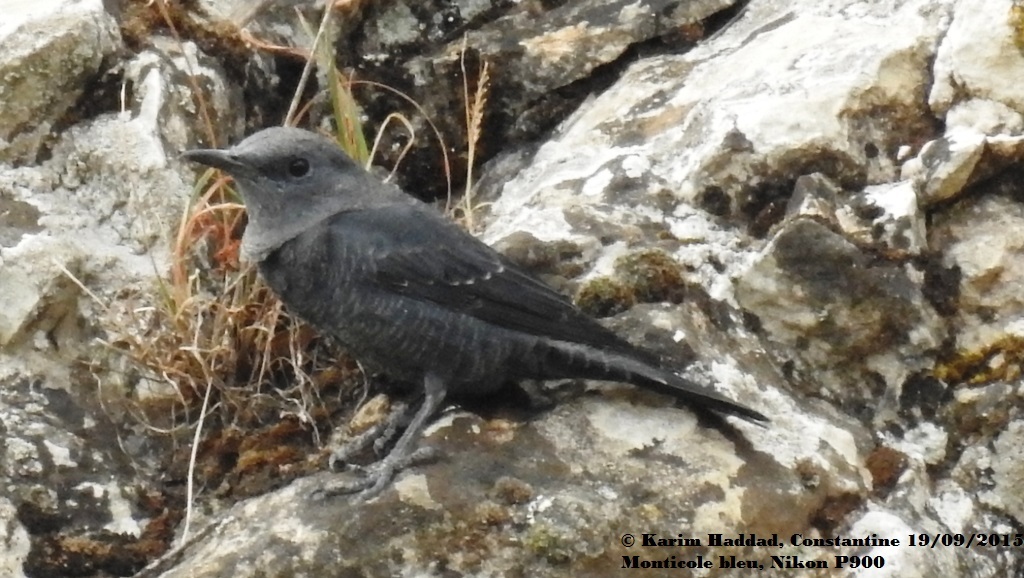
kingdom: Animalia
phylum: Chordata
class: Aves
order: Passeriformes
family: Muscicapidae
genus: Monticola
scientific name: Monticola solitarius
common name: Blue rock thrush
